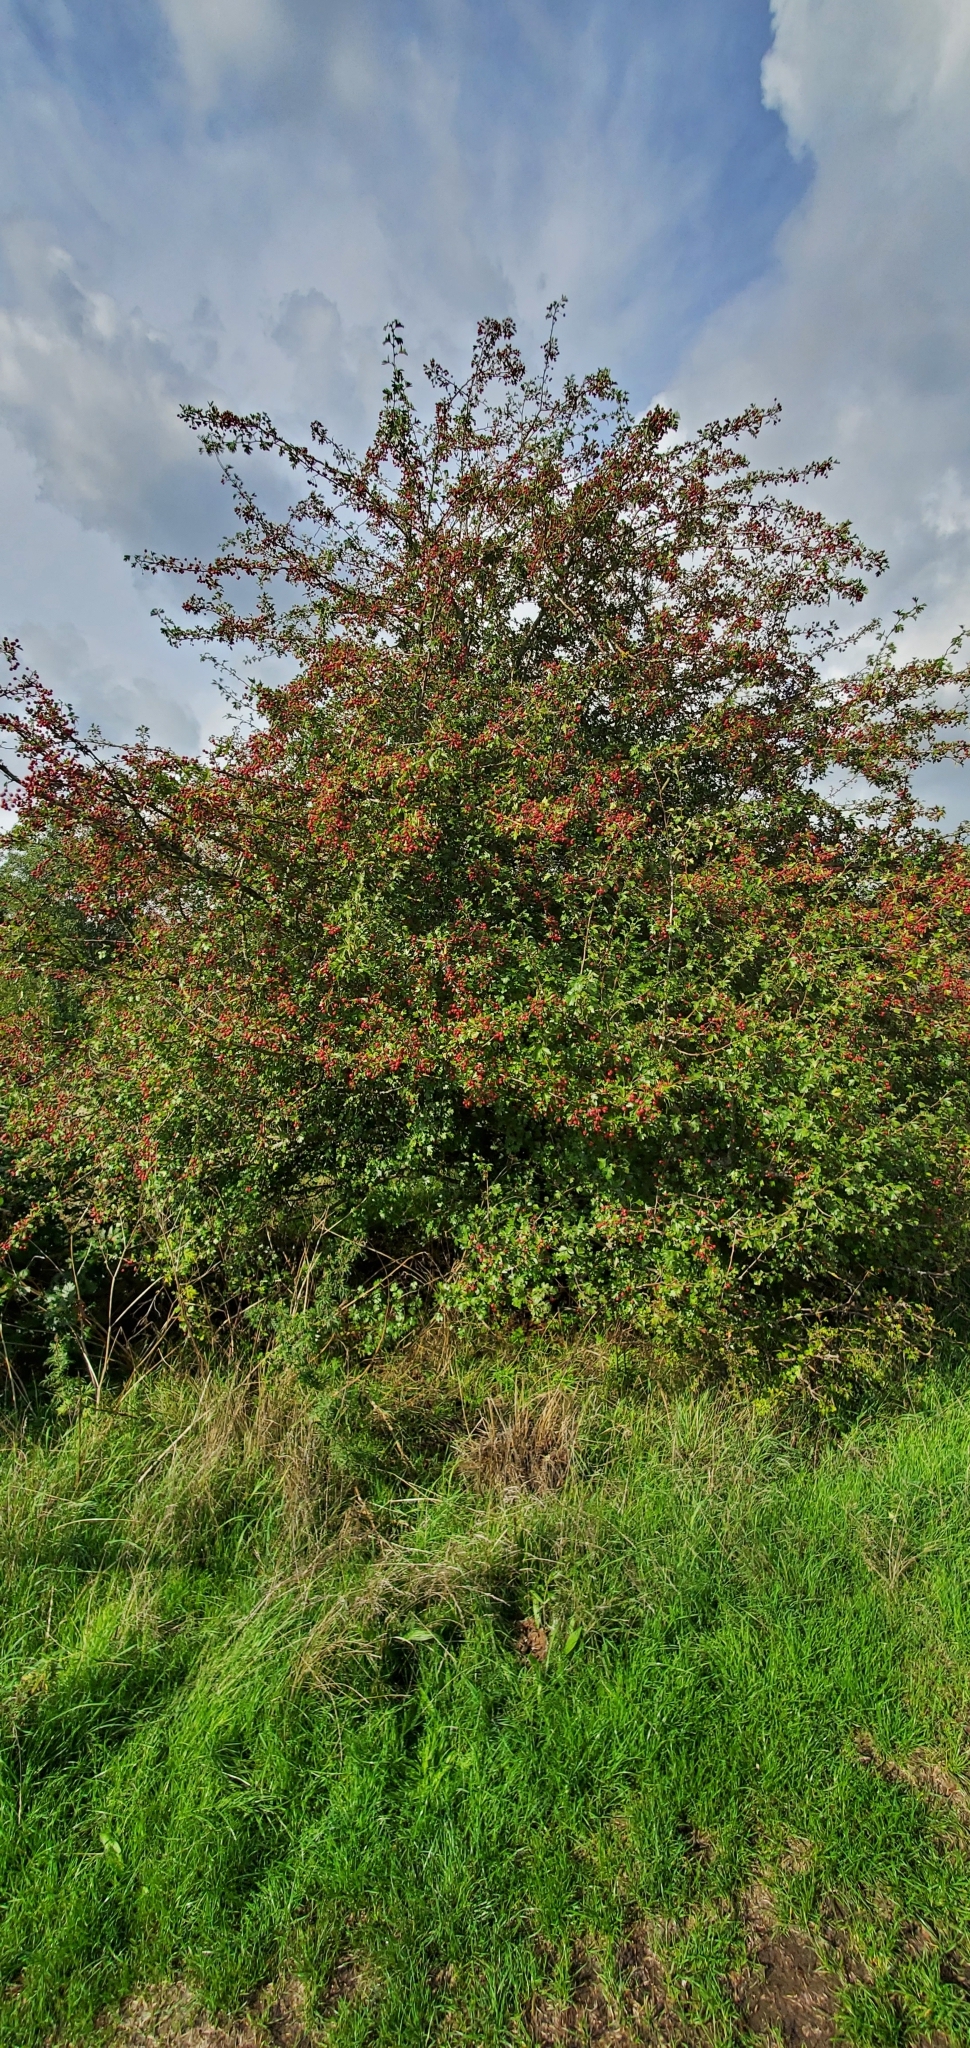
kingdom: Plantae
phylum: Tracheophyta
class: Magnoliopsida
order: Rosales
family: Rosaceae
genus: Crataegus
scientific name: Crataegus monogyna
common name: Hawthorn
